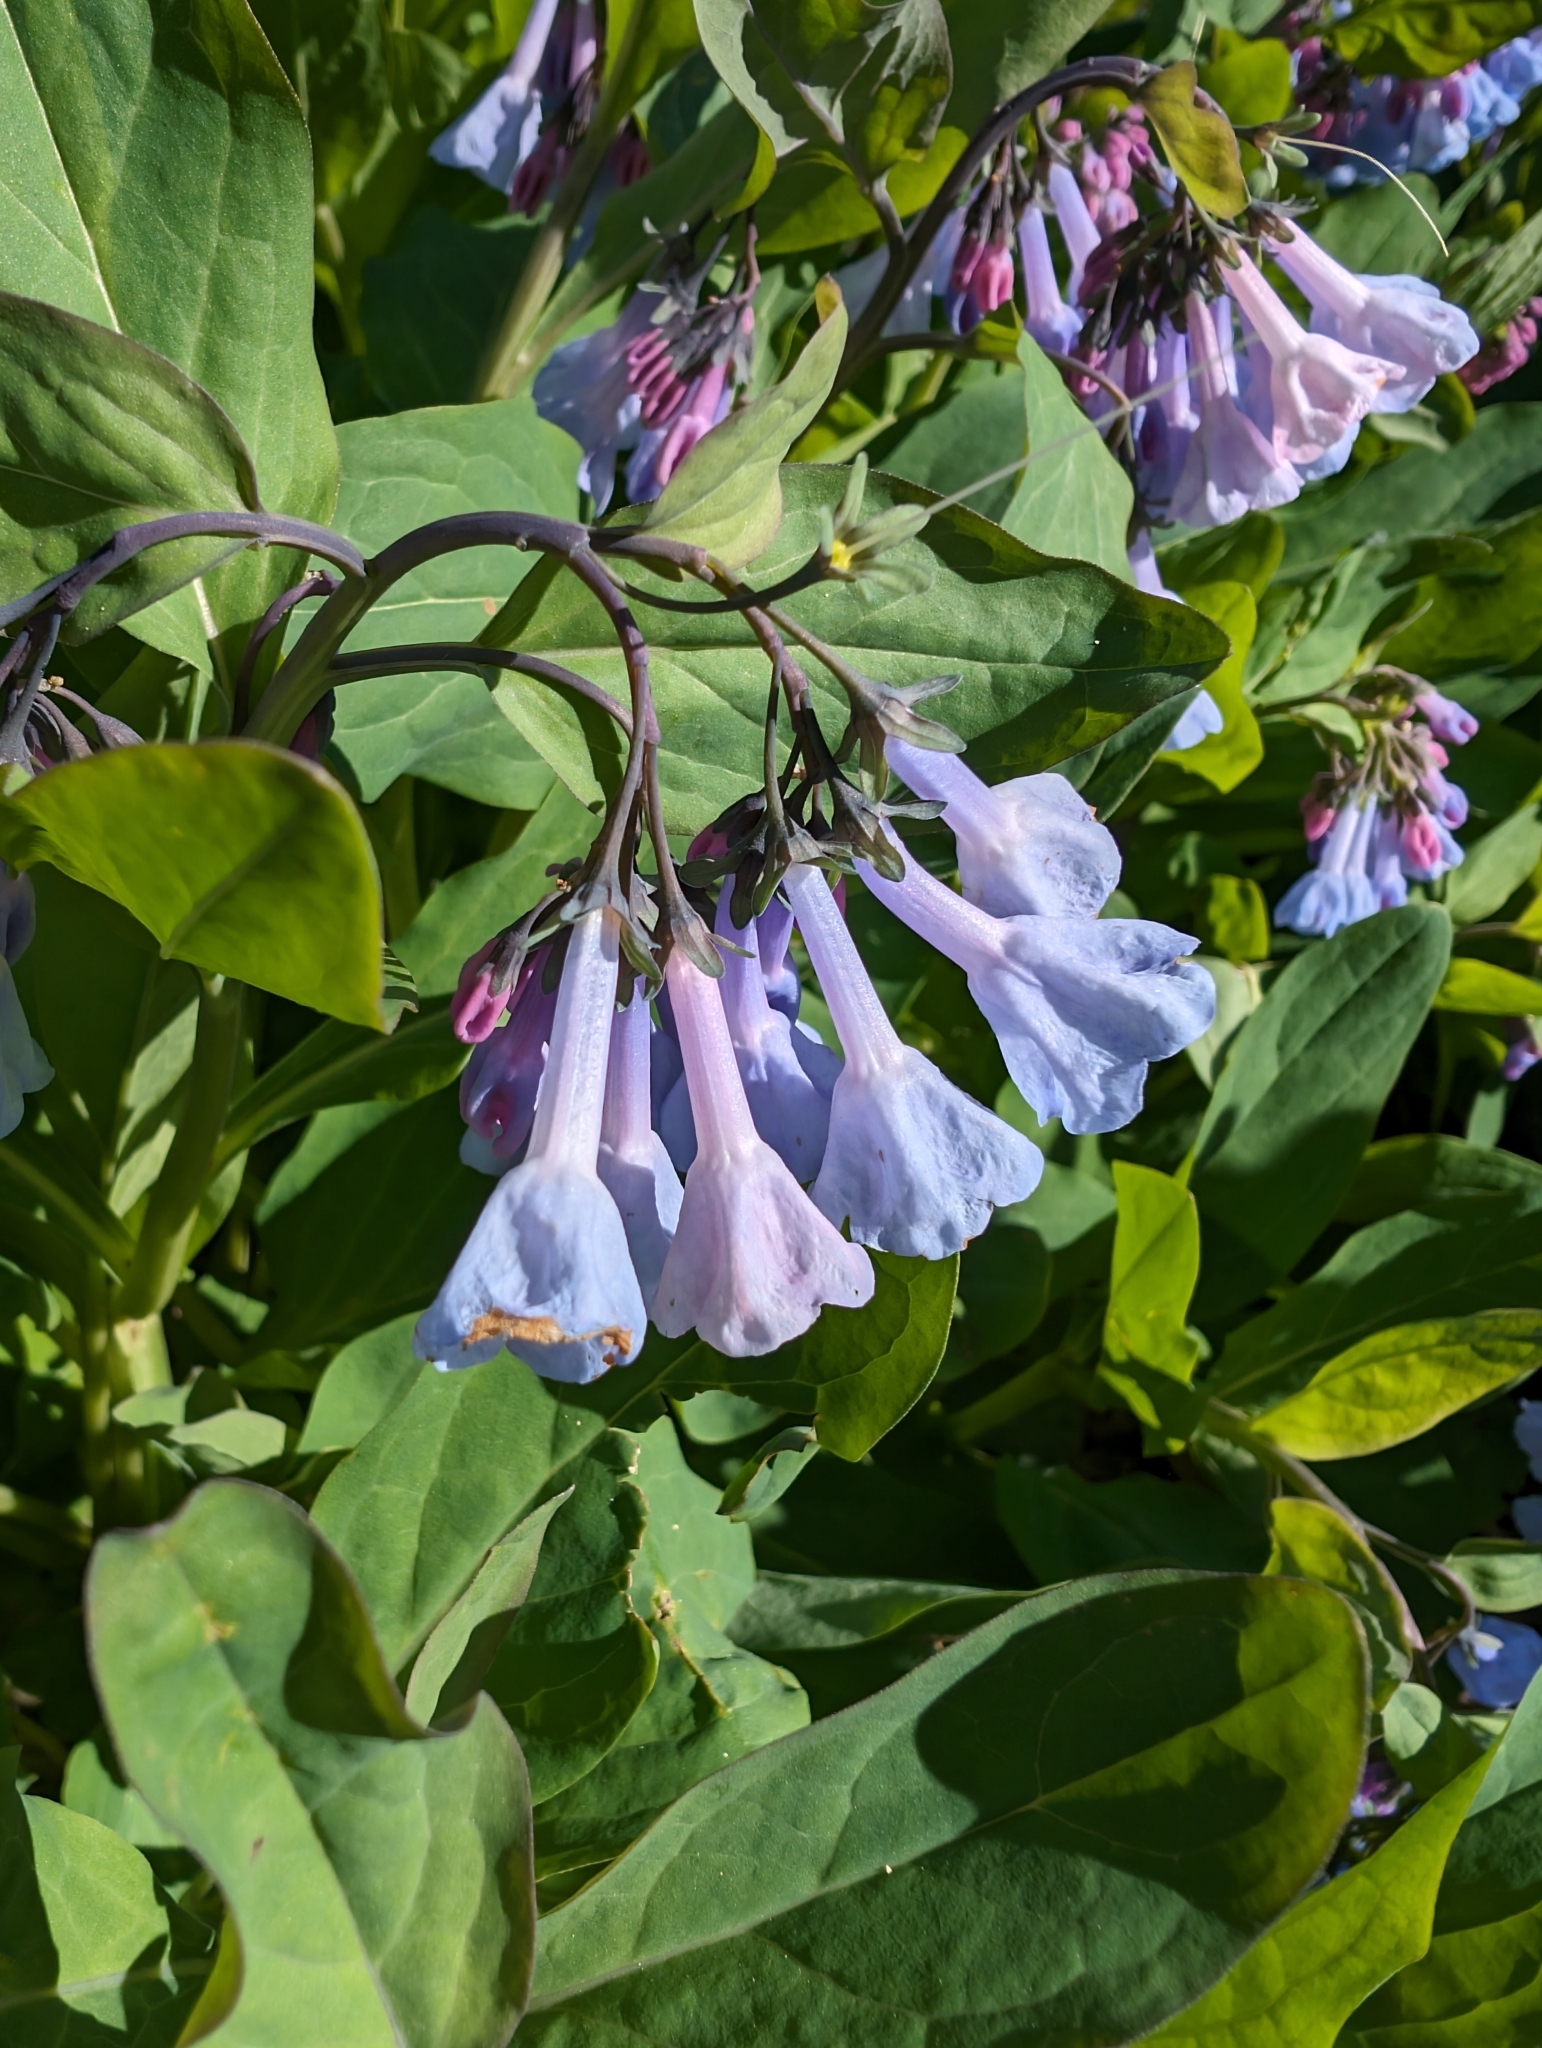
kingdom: Plantae
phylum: Tracheophyta
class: Magnoliopsida
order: Boraginales
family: Boraginaceae
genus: Mertensia
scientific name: Mertensia virginica
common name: Virginia bluebells
